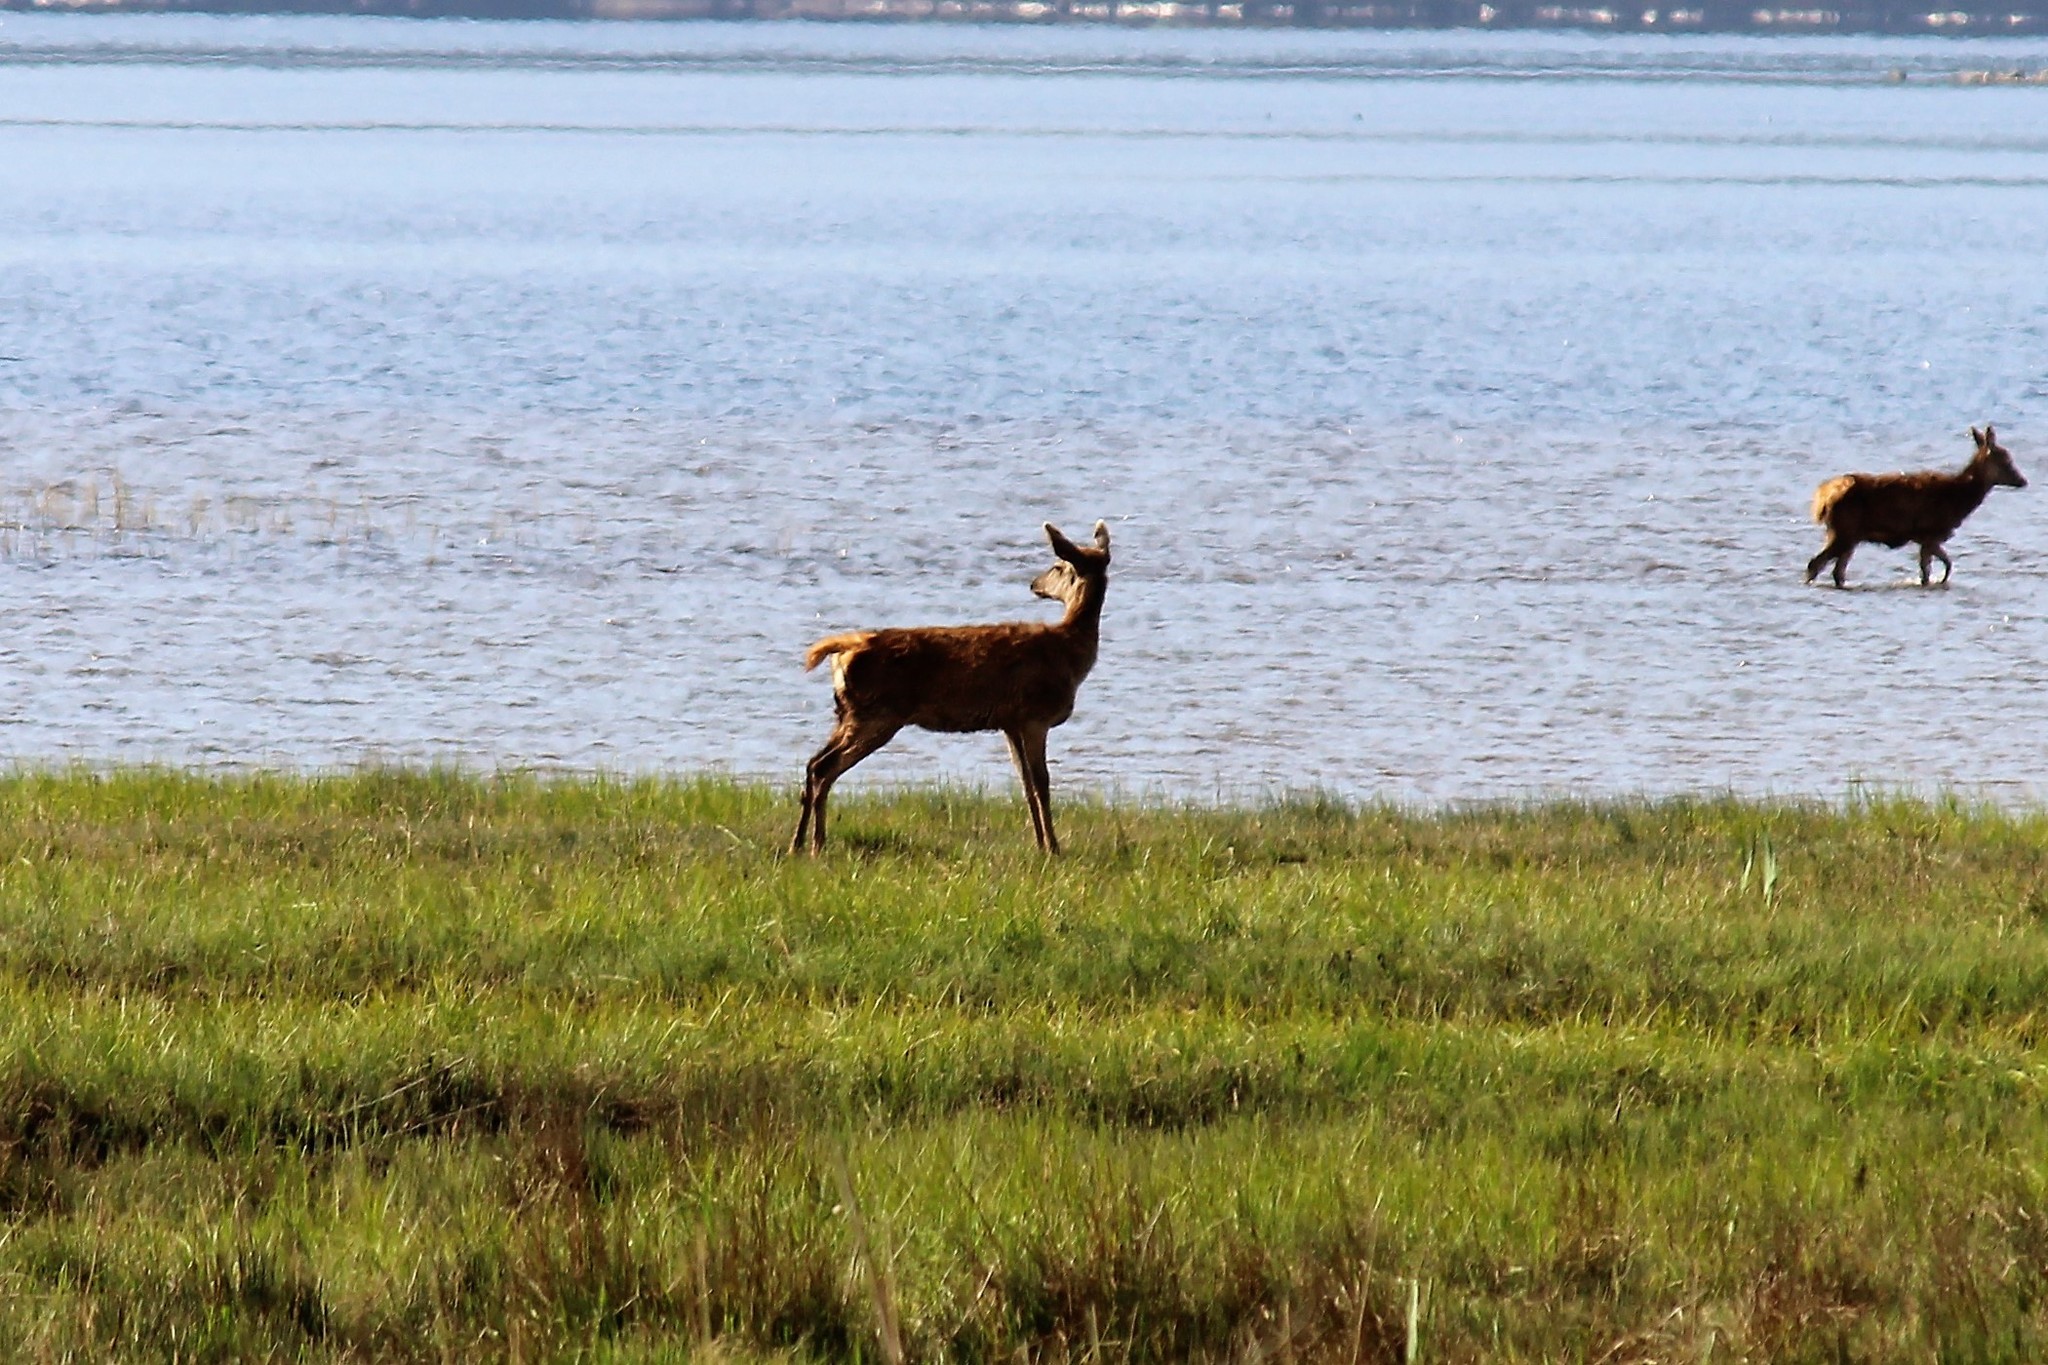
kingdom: Animalia
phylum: Chordata
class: Mammalia
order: Artiodactyla
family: Cervidae
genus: Cervus
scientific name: Cervus elaphus
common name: Red deer
